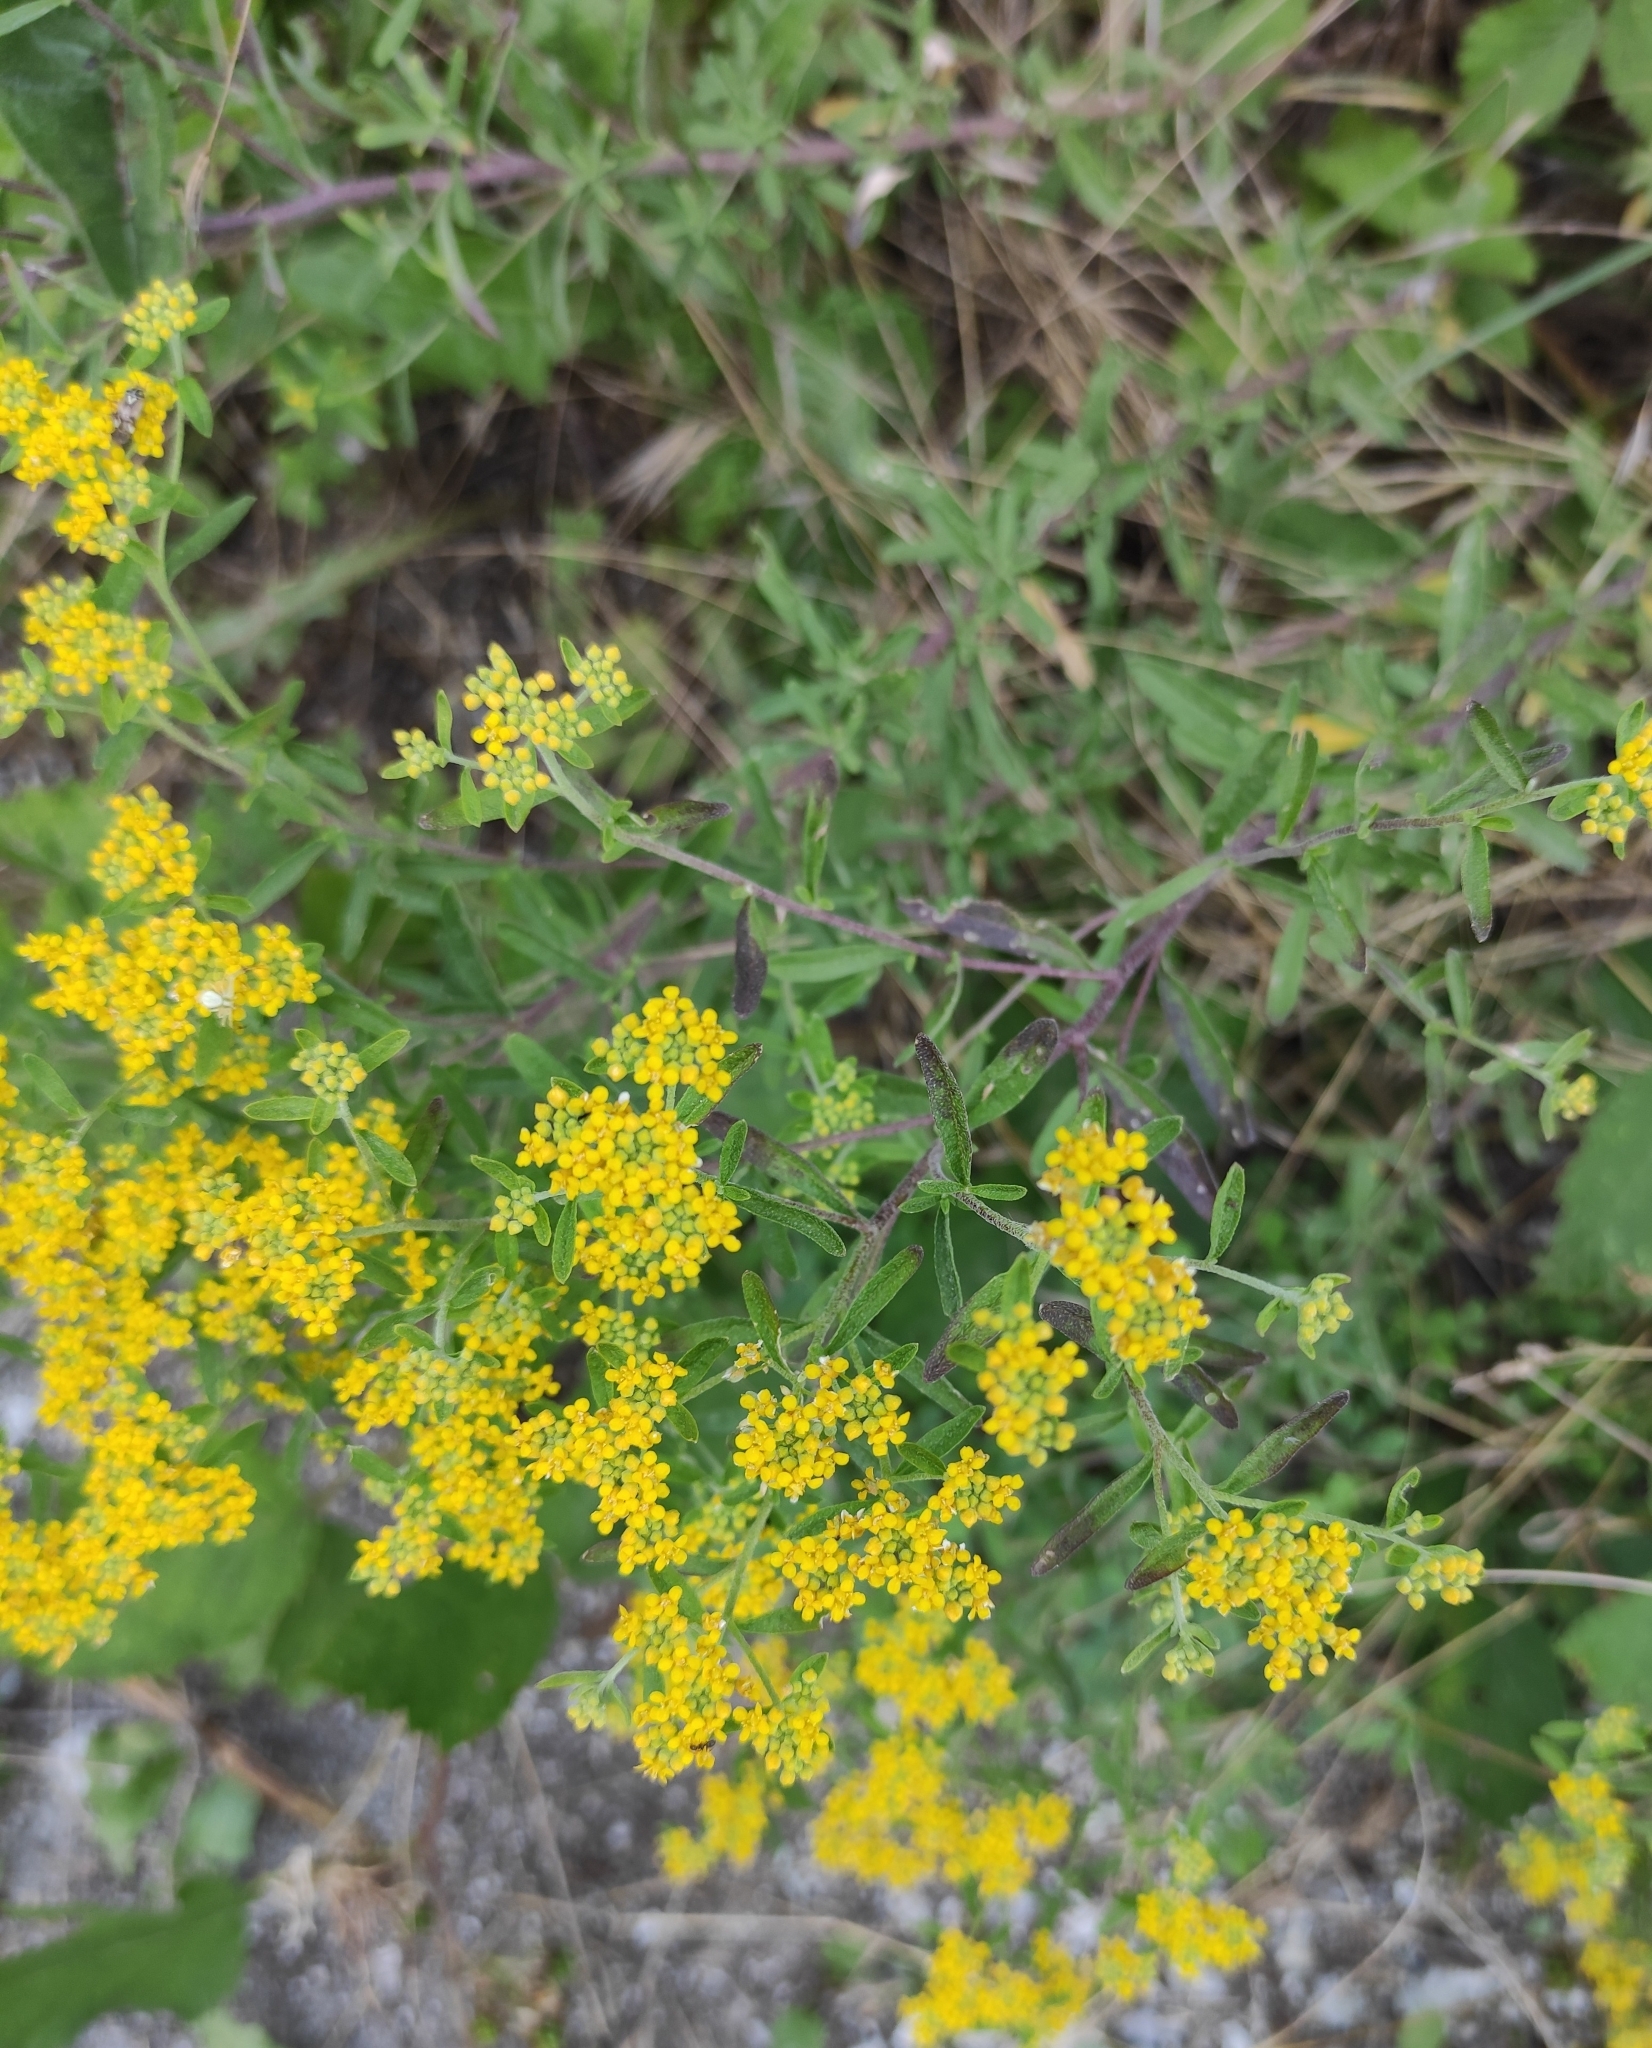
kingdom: Plantae
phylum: Tracheophyta
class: Magnoliopsida
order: Brassicales
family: Brassicaceae
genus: Odontarrhena
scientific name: Odontarrhena muralis
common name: Rock alyssum
